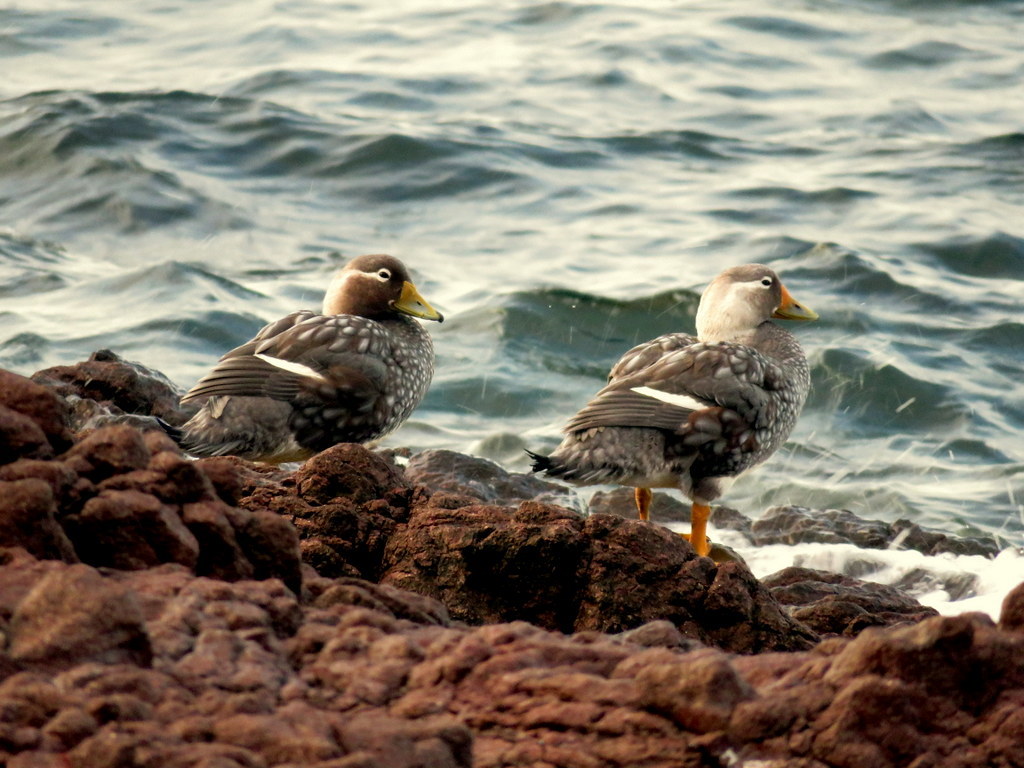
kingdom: Animalia
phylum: Chordata
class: Aves
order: Anseriformes
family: Anatidae
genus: Tachyeres
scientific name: Tachyeres patachonicus
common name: Flying steamer duck
